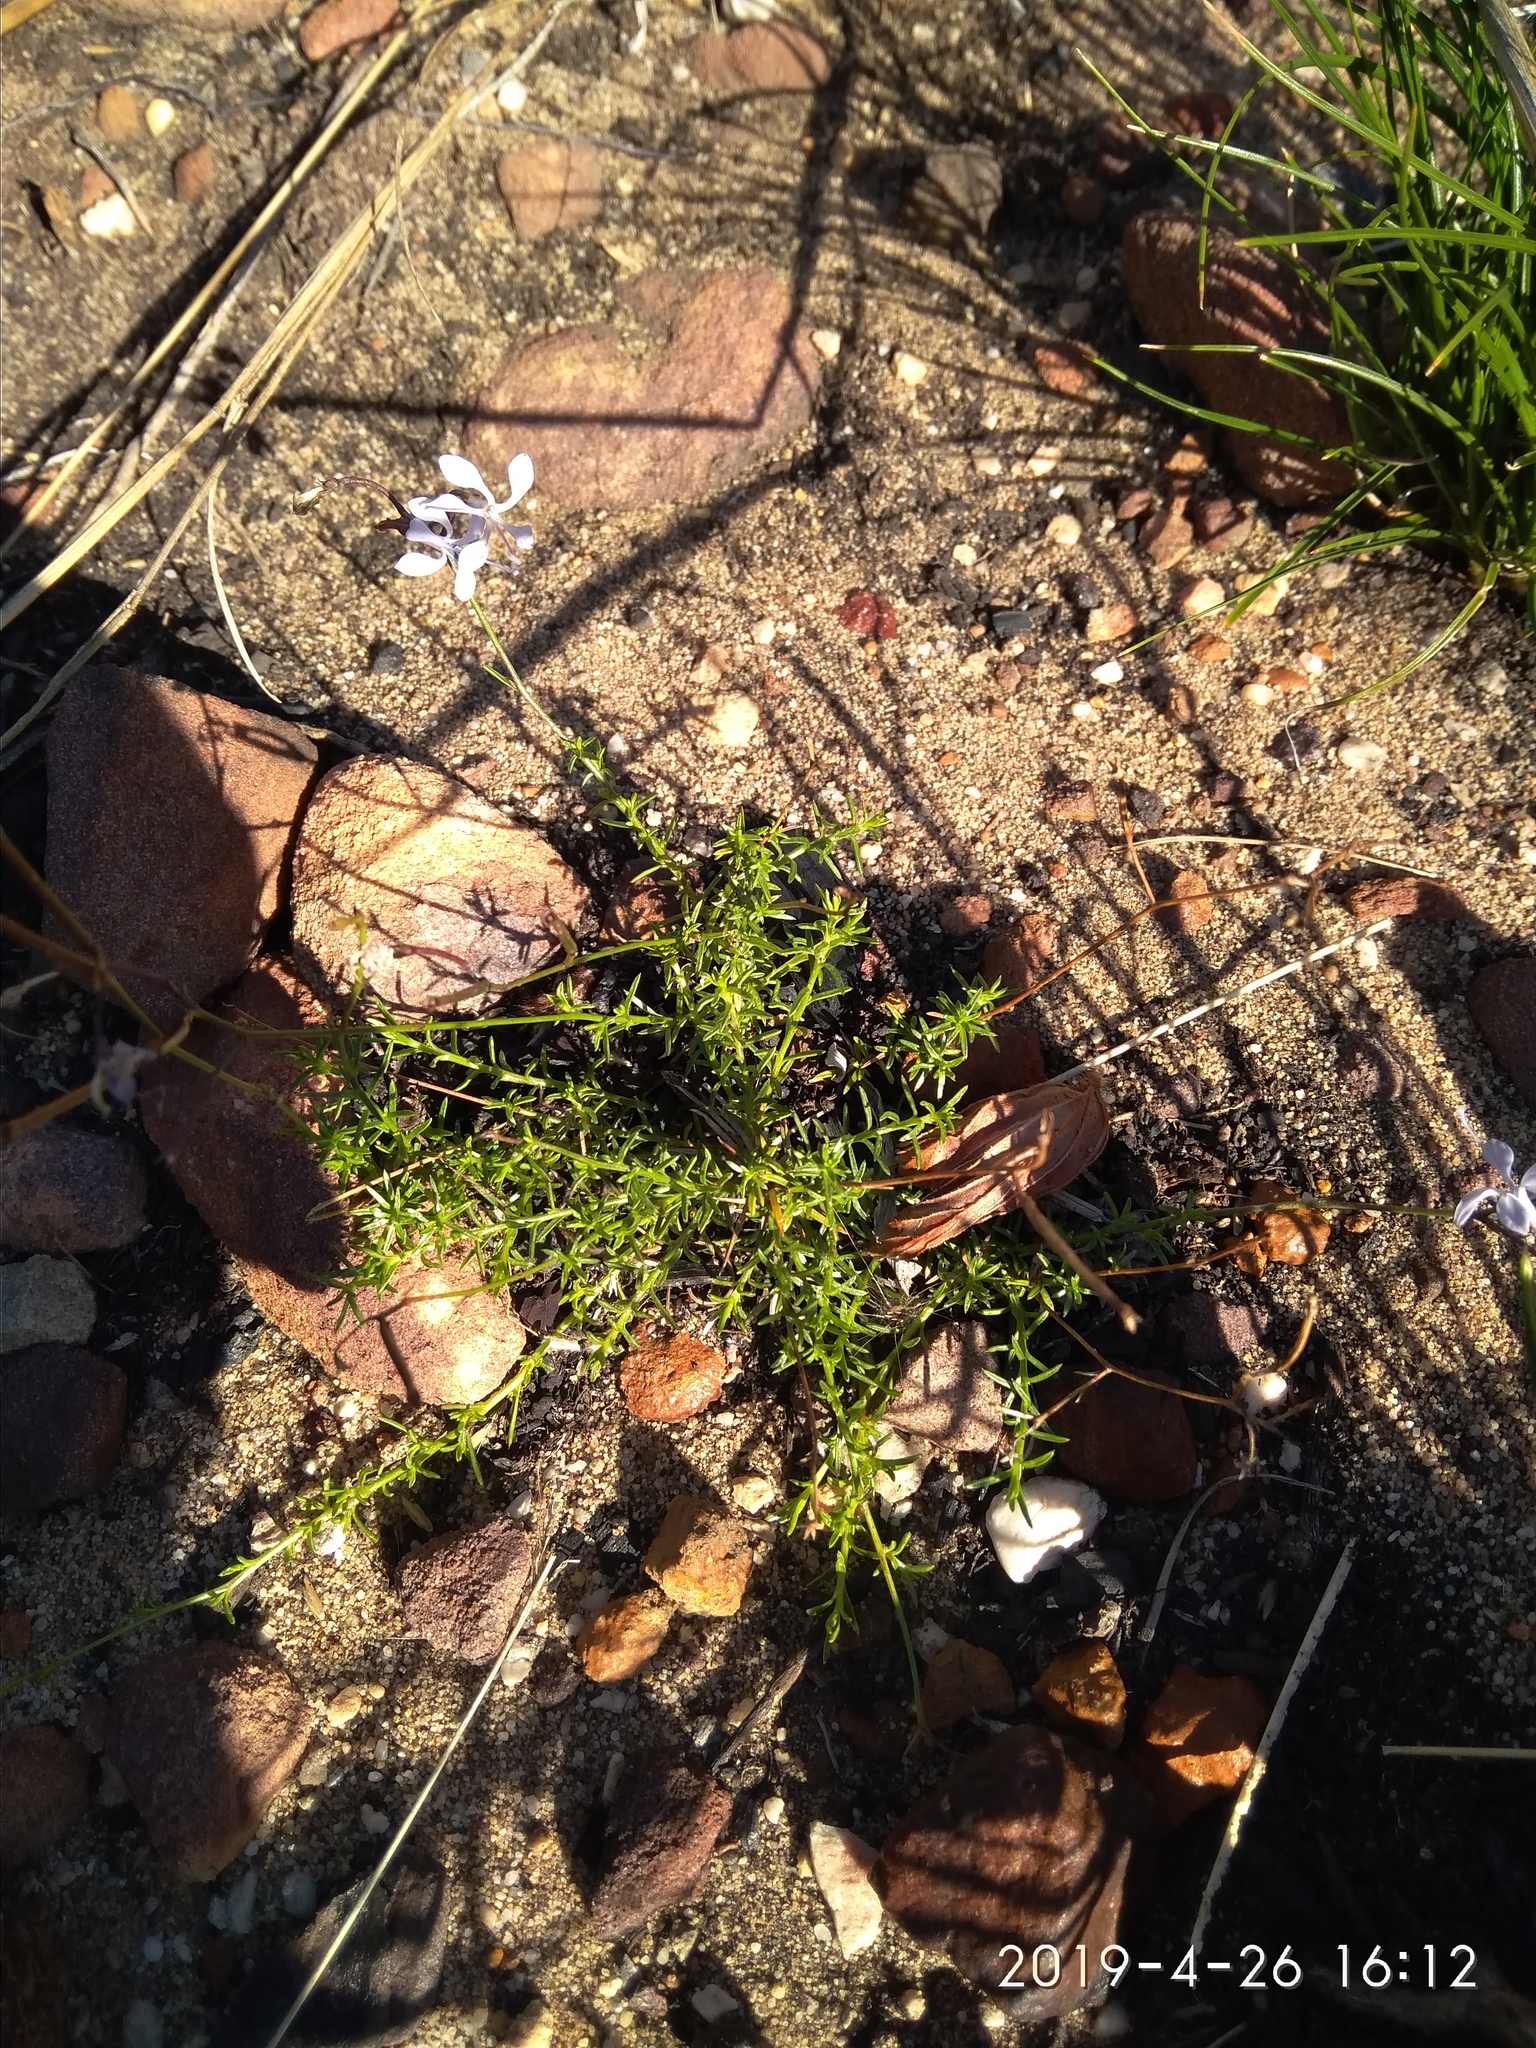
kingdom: Plantae
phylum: Tracheophyta
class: Magnoliopsida
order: Asterales
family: Campanulaceae
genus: Prismatocarpus
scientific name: Prismatocarpus diffusus
